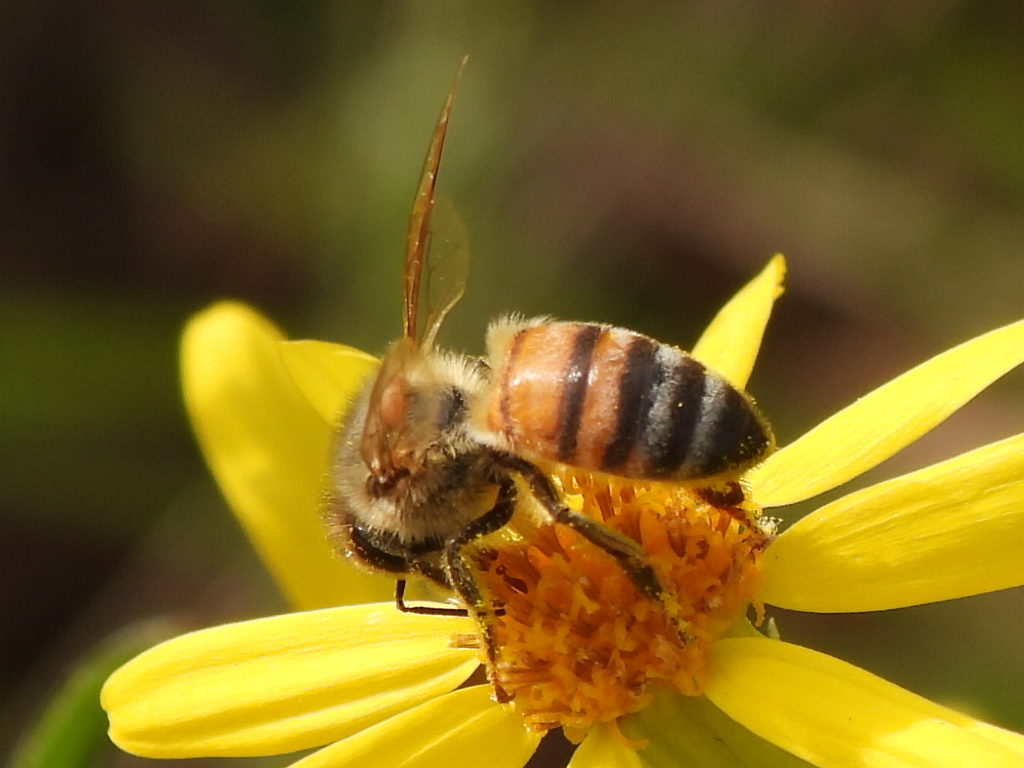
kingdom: Animalia
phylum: Arthropoda
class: Insecta
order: Hymenoptera
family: Apidae
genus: Apis
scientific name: Apis mellifera
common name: Honey bee
